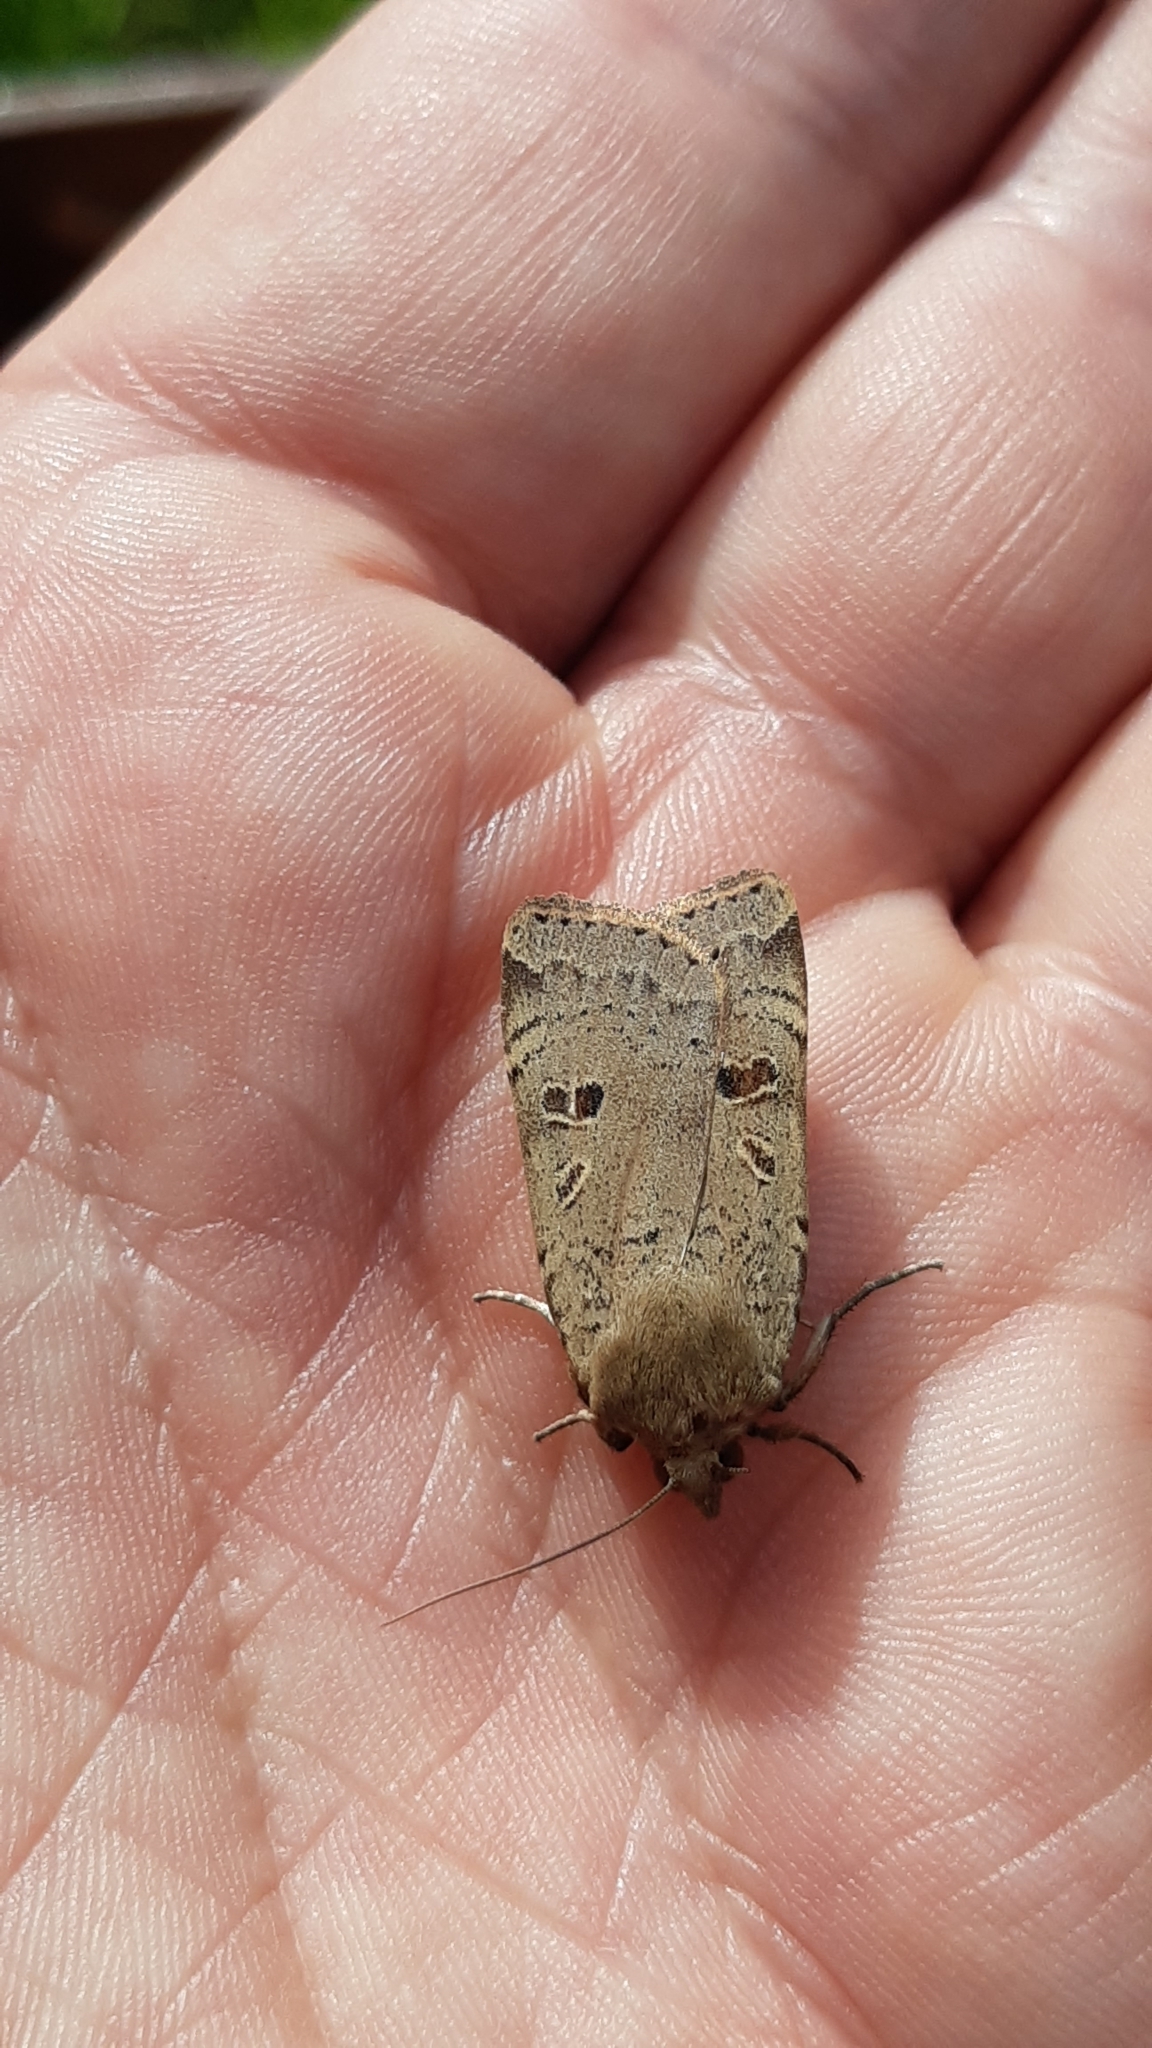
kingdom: Animalia
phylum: Arthropoda
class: Insecta
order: Lepidoptera
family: Noctuidae
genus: Noctua
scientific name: Noctua comes
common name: Lesser yellow underwing
